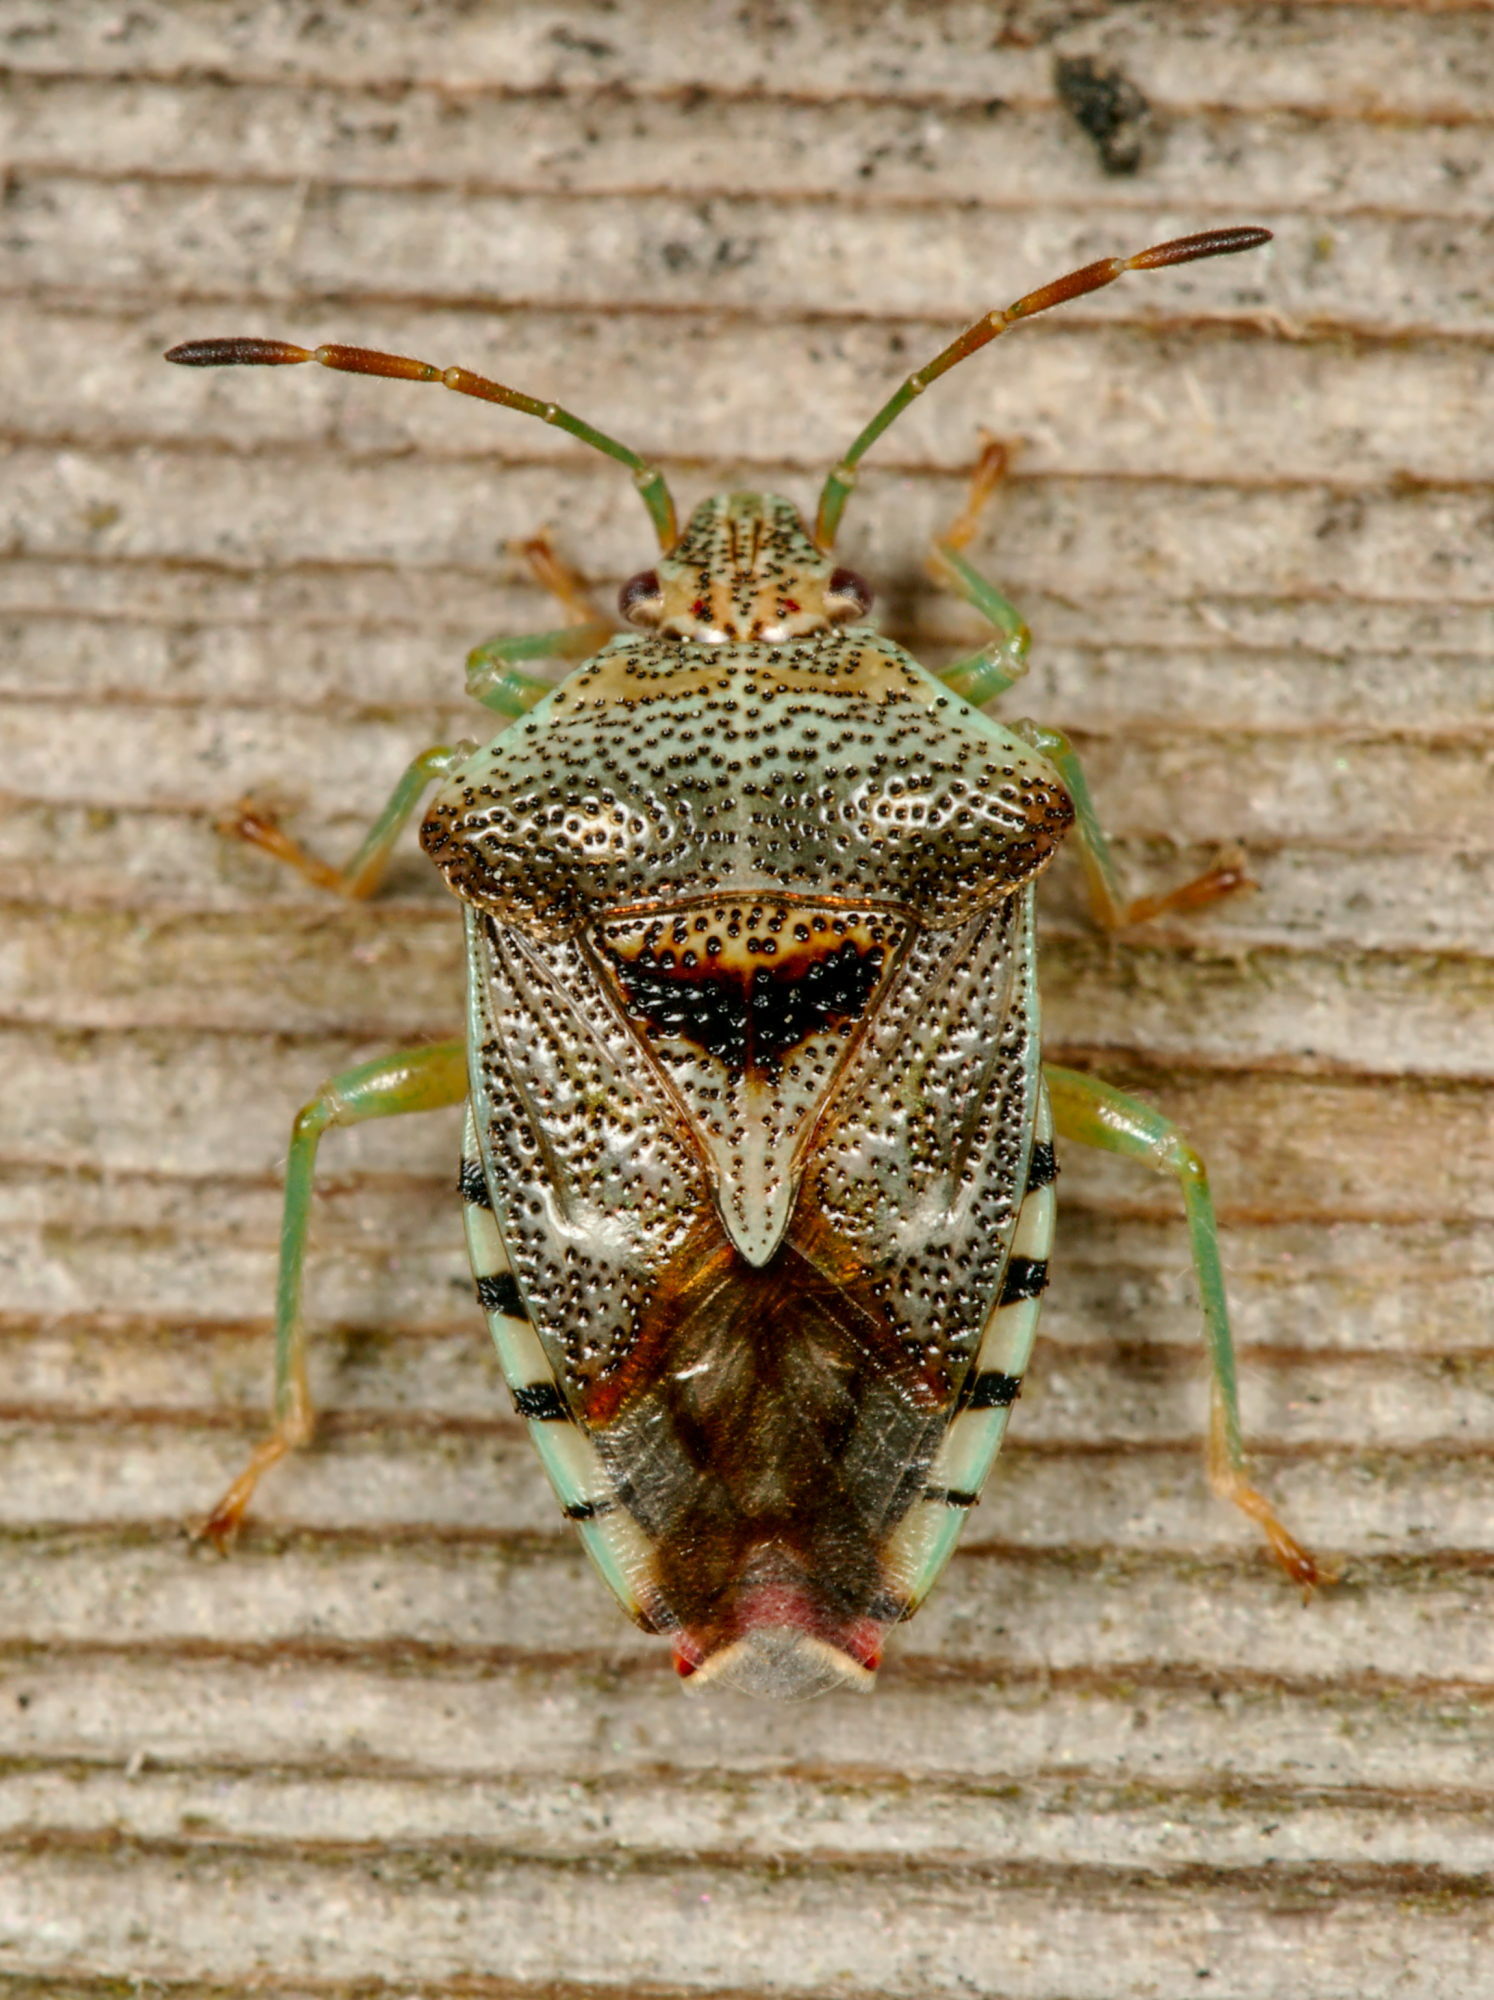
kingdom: Animalia
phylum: Arthropoda
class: Insecta
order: Hemiptera
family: Acanthosomatidae
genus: Elasmucha
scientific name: Elasmucha grisea
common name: Parent bug
